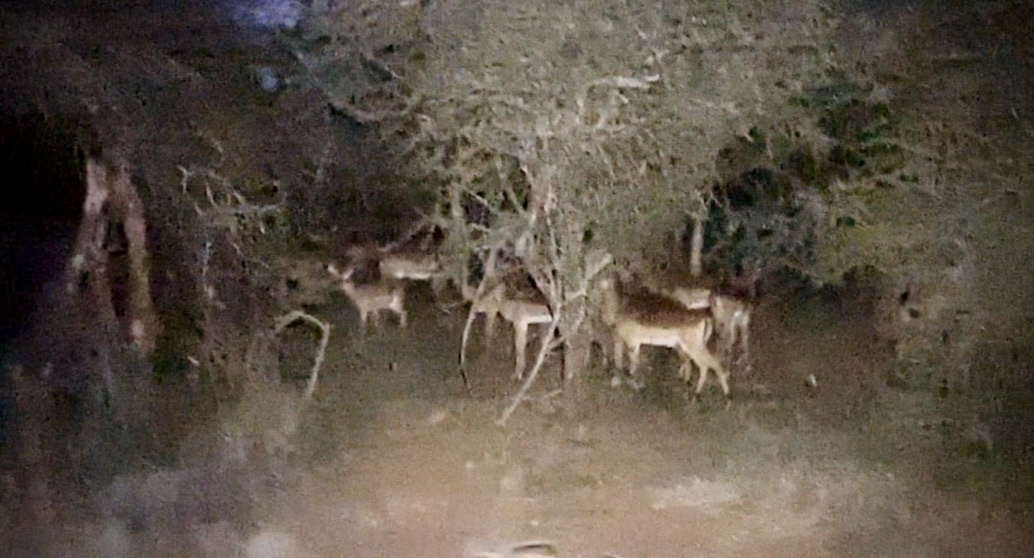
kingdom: Animalia
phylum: Chordata
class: Mammalia
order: Artiodactyla
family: Bovidae
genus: Aepyceros
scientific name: Aepyceros melampus
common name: Impala
